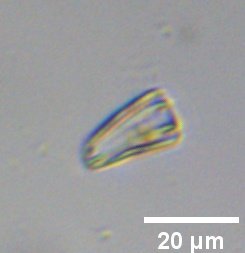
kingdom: Chromista
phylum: Ochrophyta
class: Bacillariophyceae
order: Cymbellales
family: Rhoicospheniaceae
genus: Rhoicosphenia
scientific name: Rhoicosphenia abbreviata
